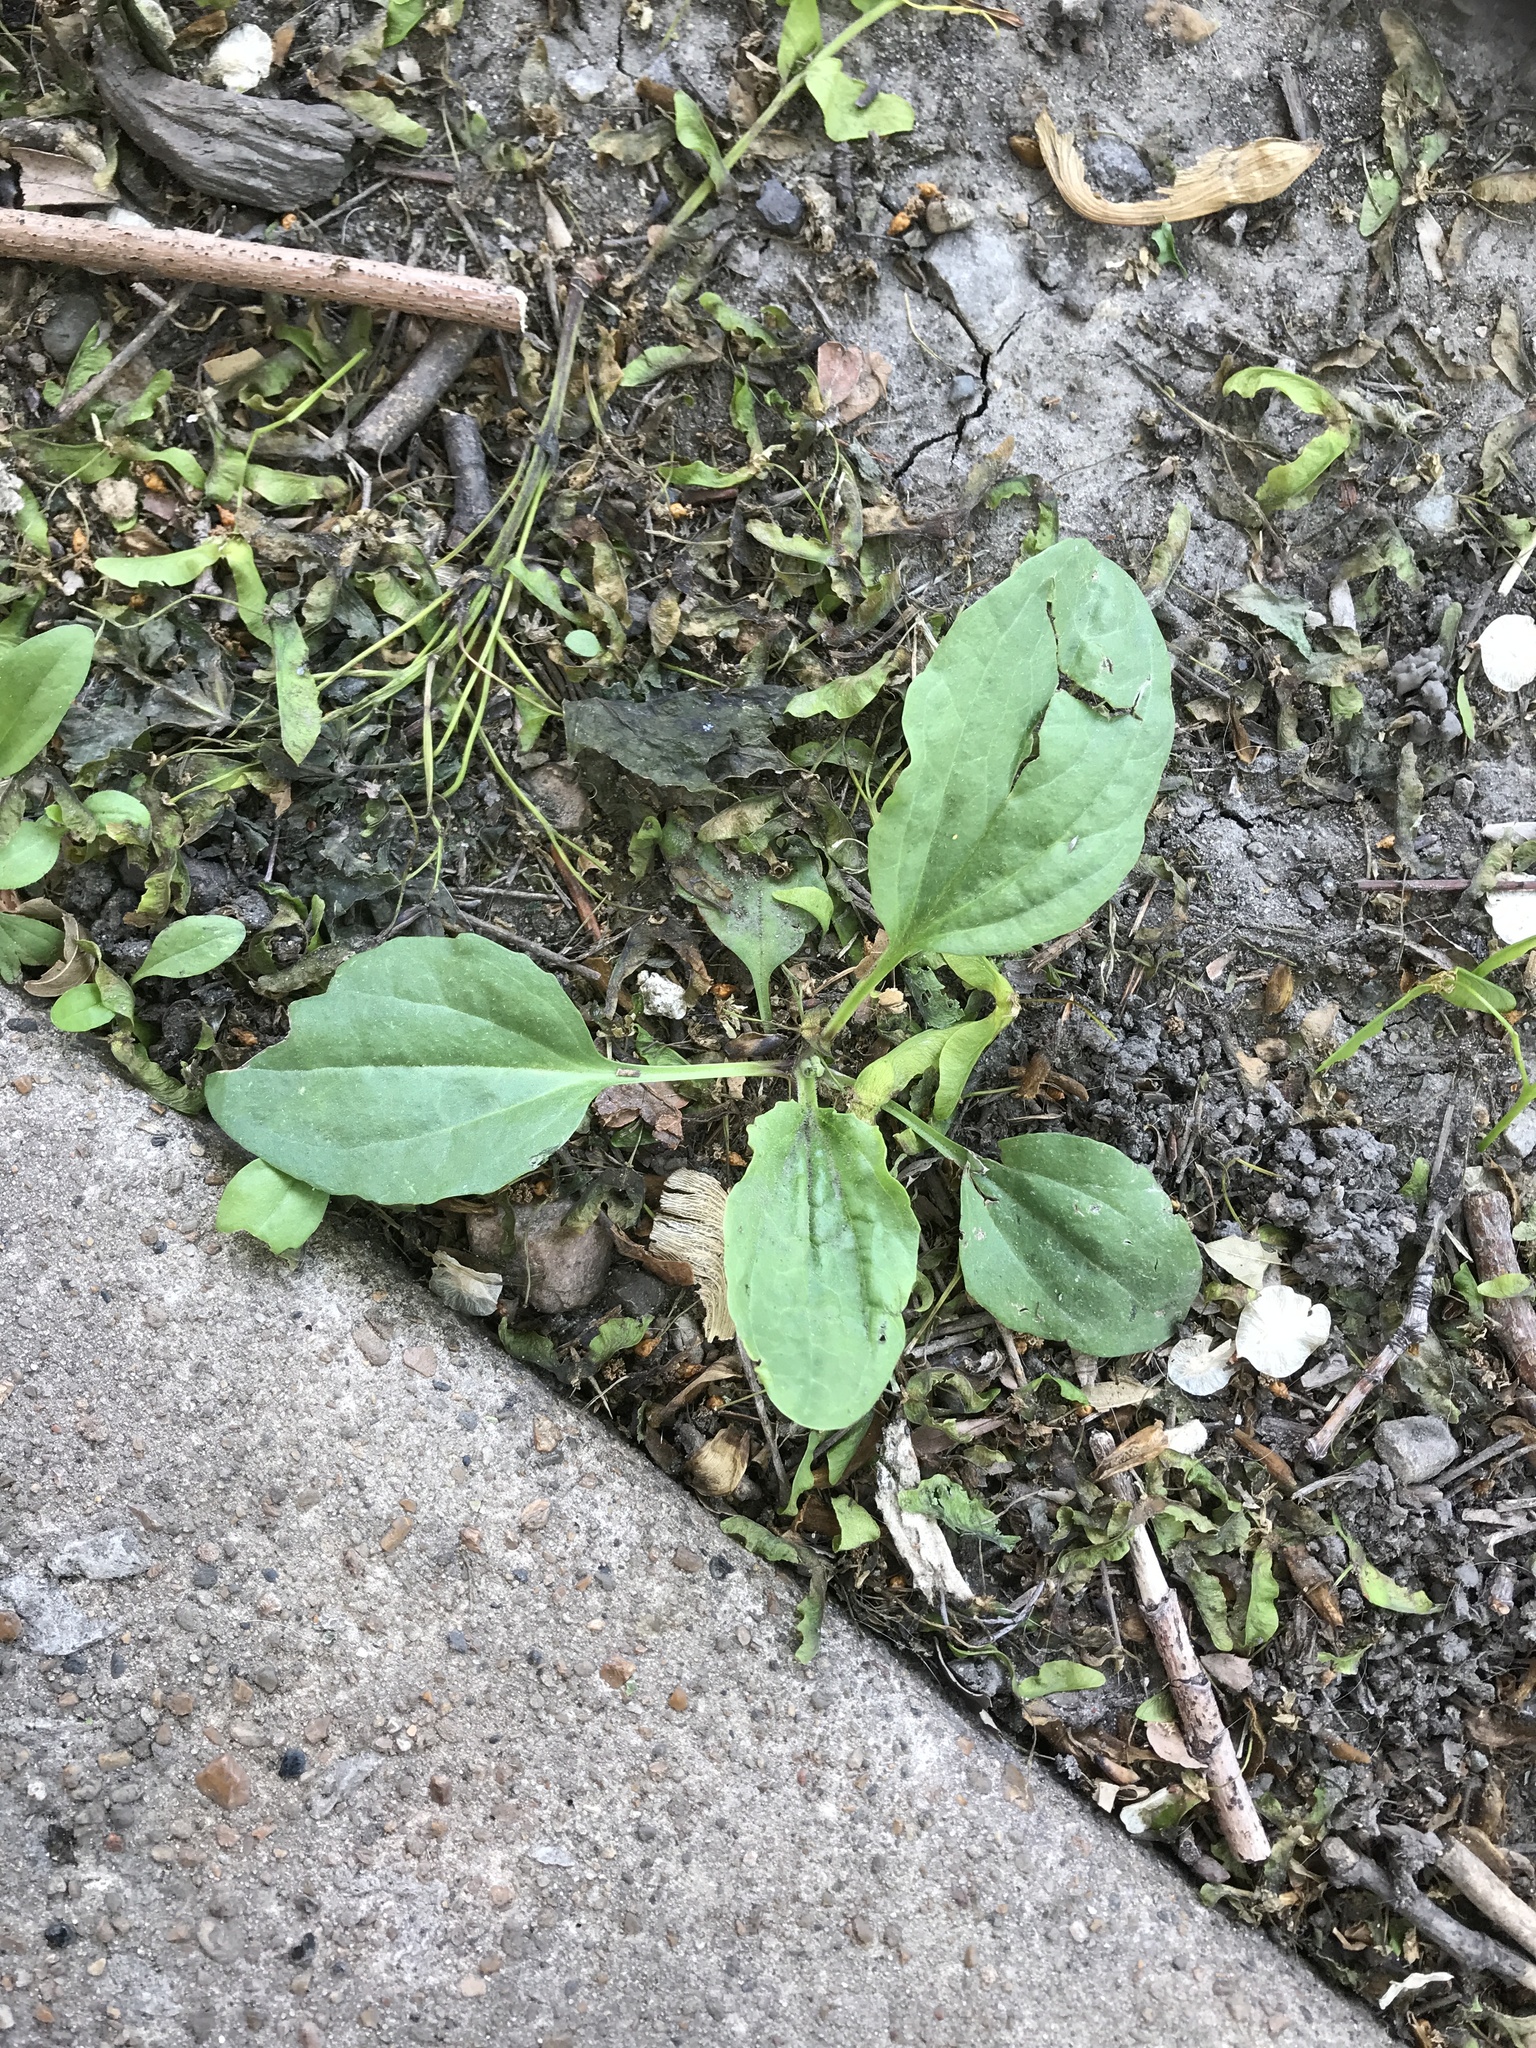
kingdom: Plantae
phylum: Tracheophyta
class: Magnoliopsida
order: Lamiales
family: Plantaginaceae
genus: Plantago
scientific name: Plantago major
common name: Common plantain
